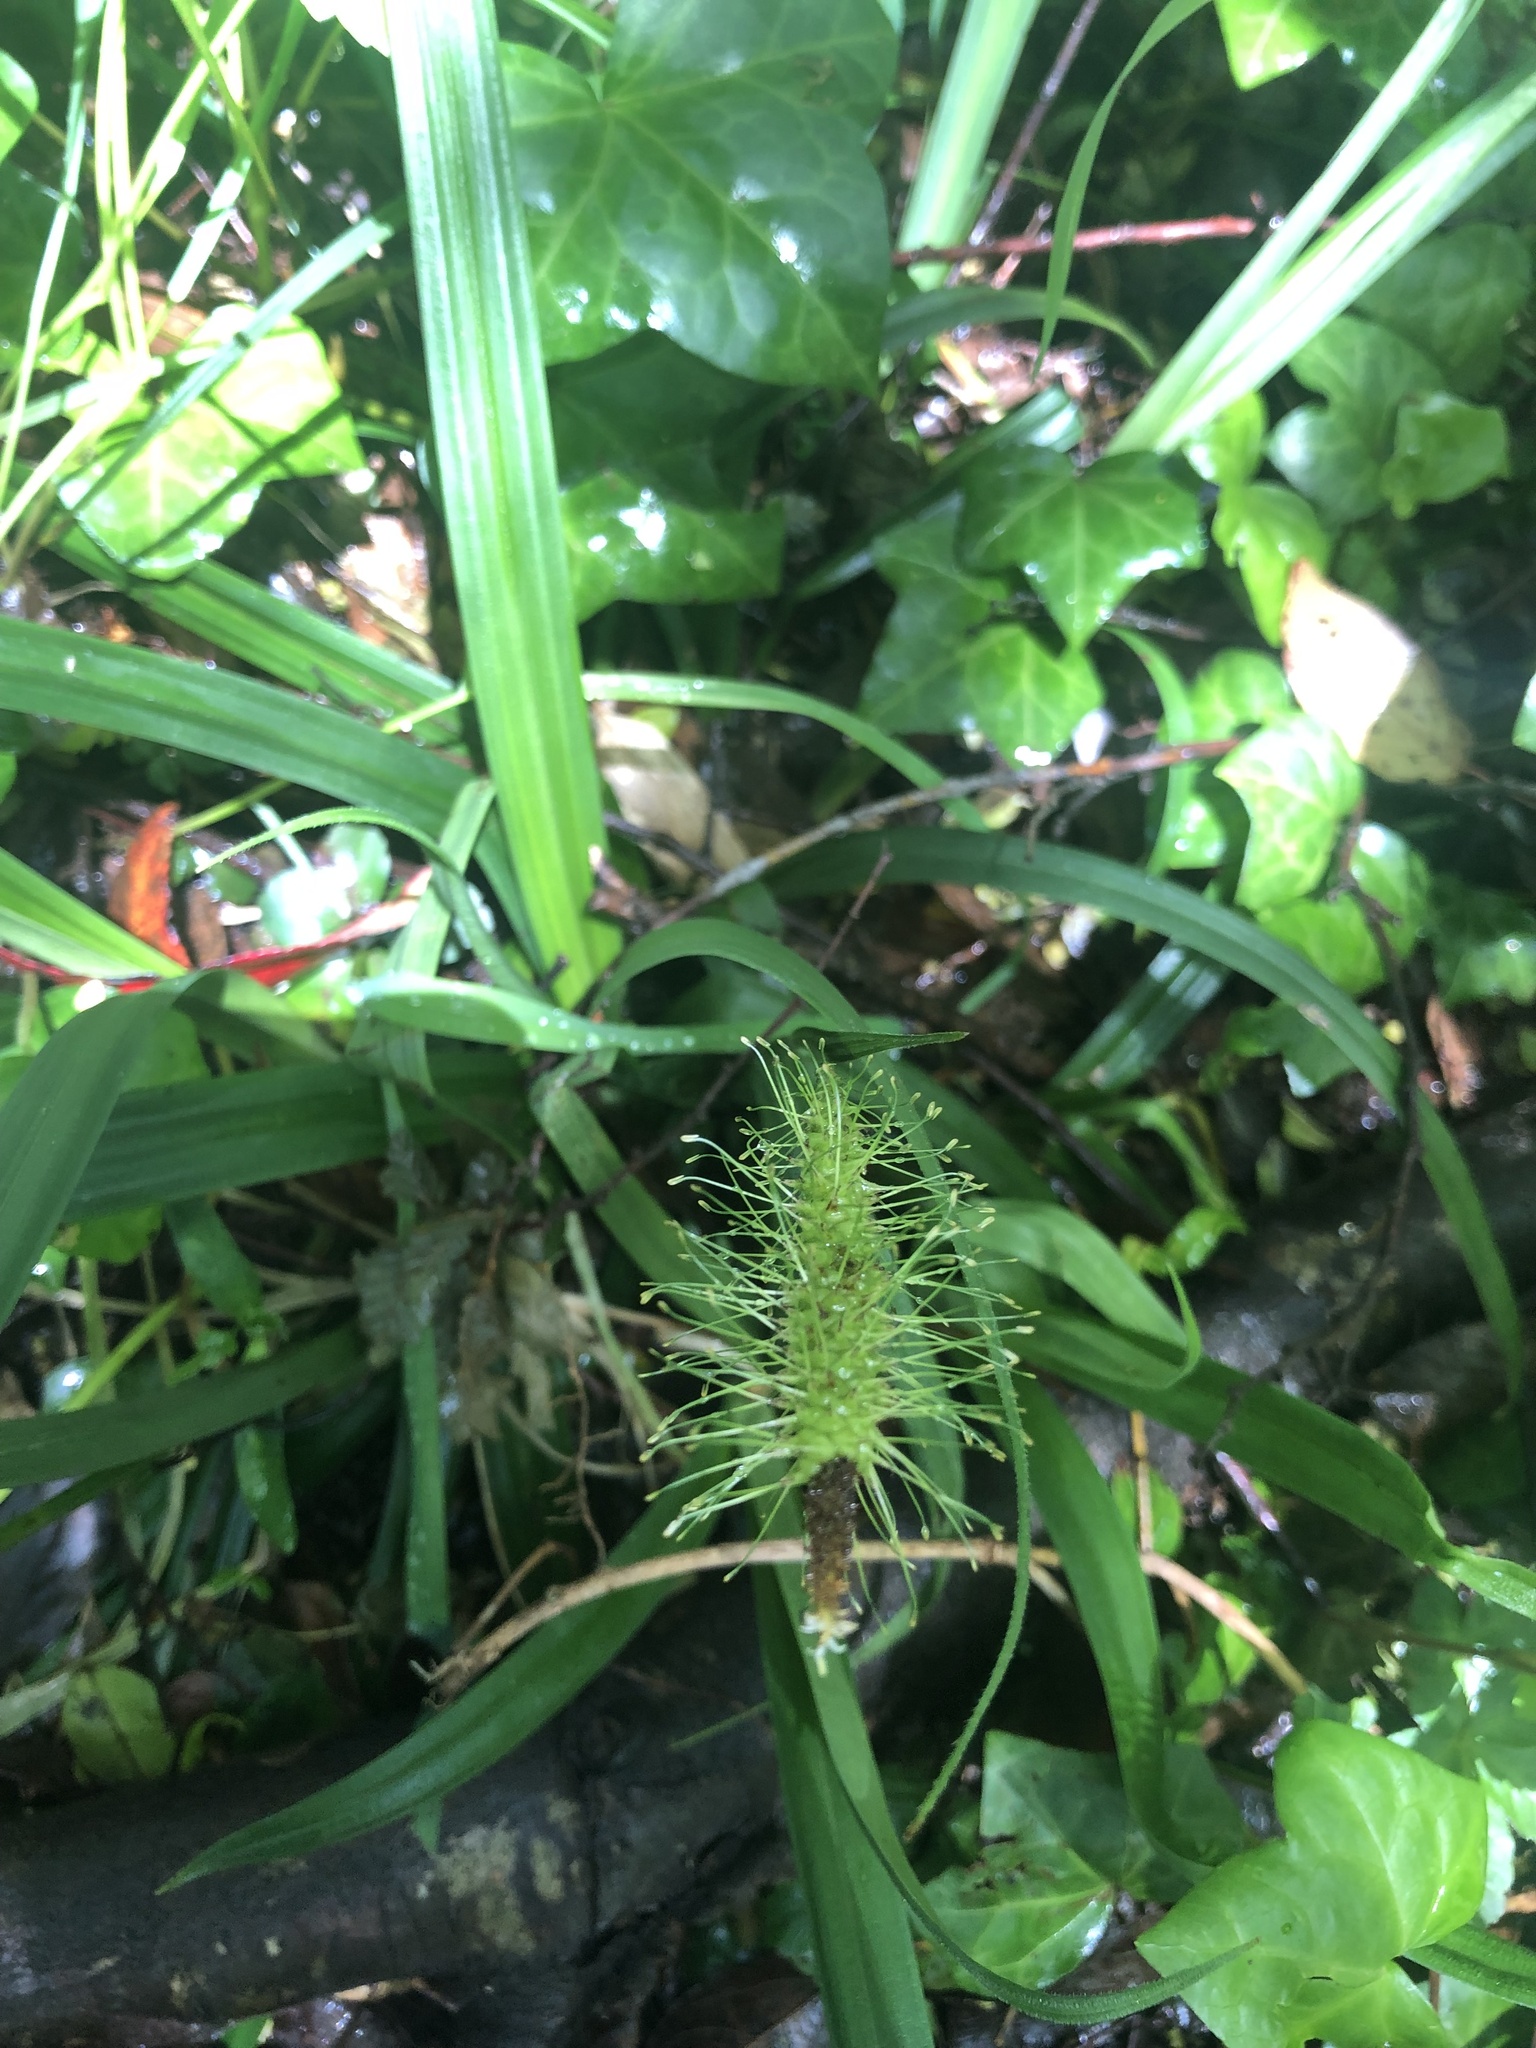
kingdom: Plantae
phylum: Tracheophyta
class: Liliopsida
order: Poales
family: Cyperaceae
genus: Carex
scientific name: Carex erinacea
